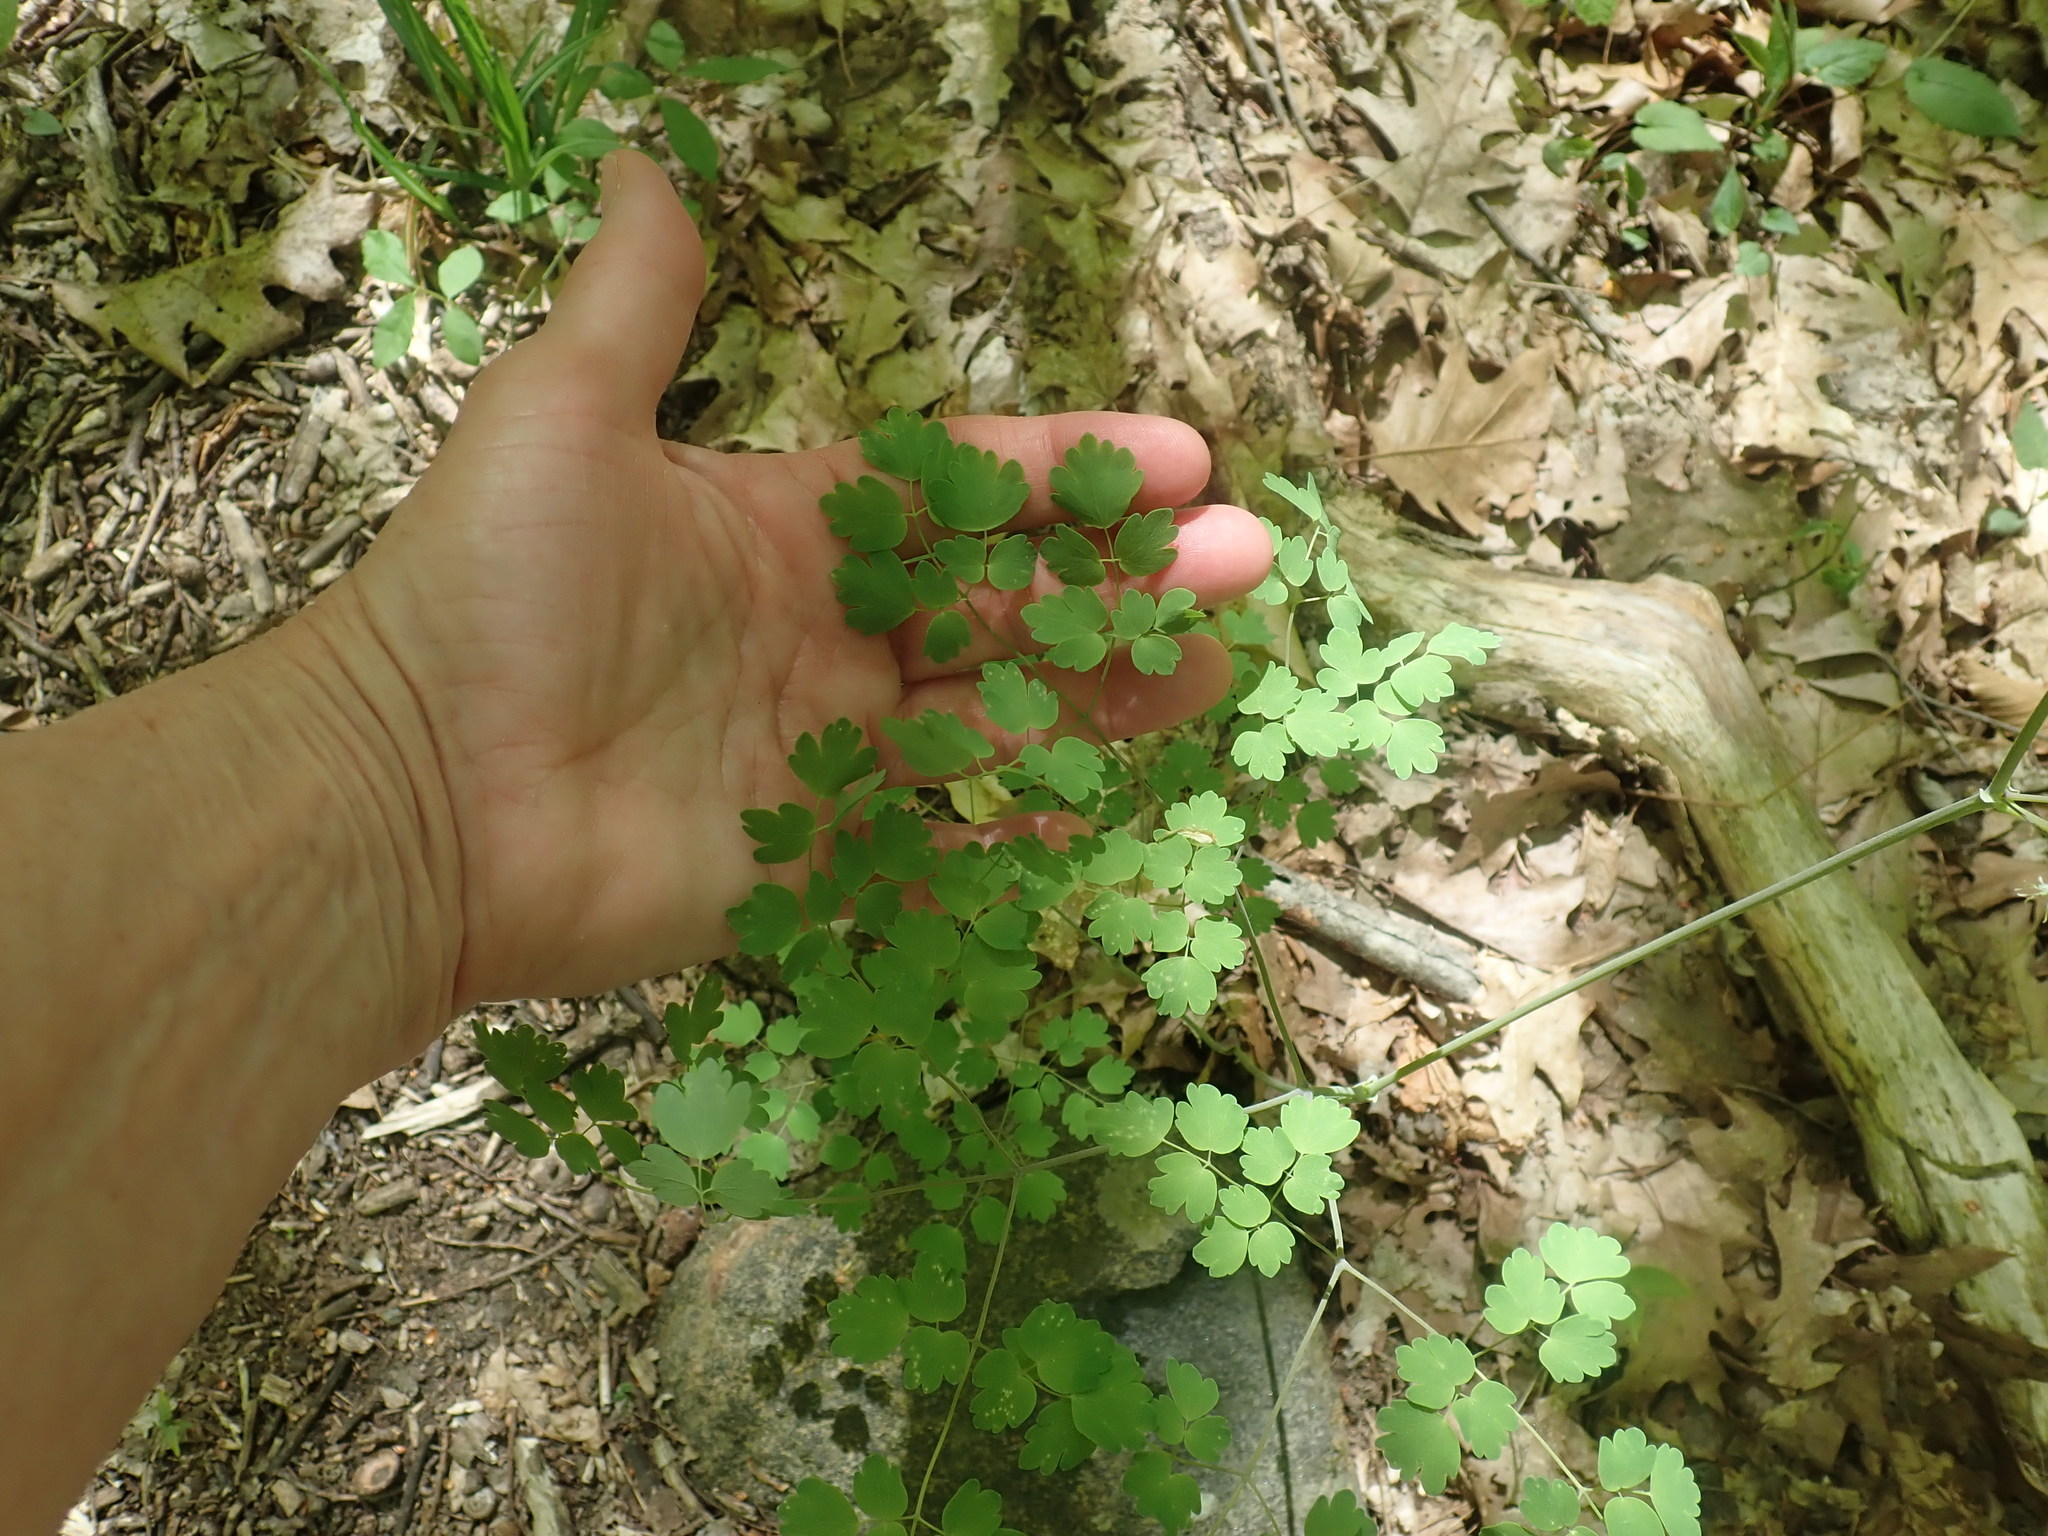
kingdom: Plantae
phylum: Tracheophyta
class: Magnoliopsida
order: Ranunculales
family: Ranunculaceae
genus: Thalictrum
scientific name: Thalictrum dioicum
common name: Early meadow-rue
